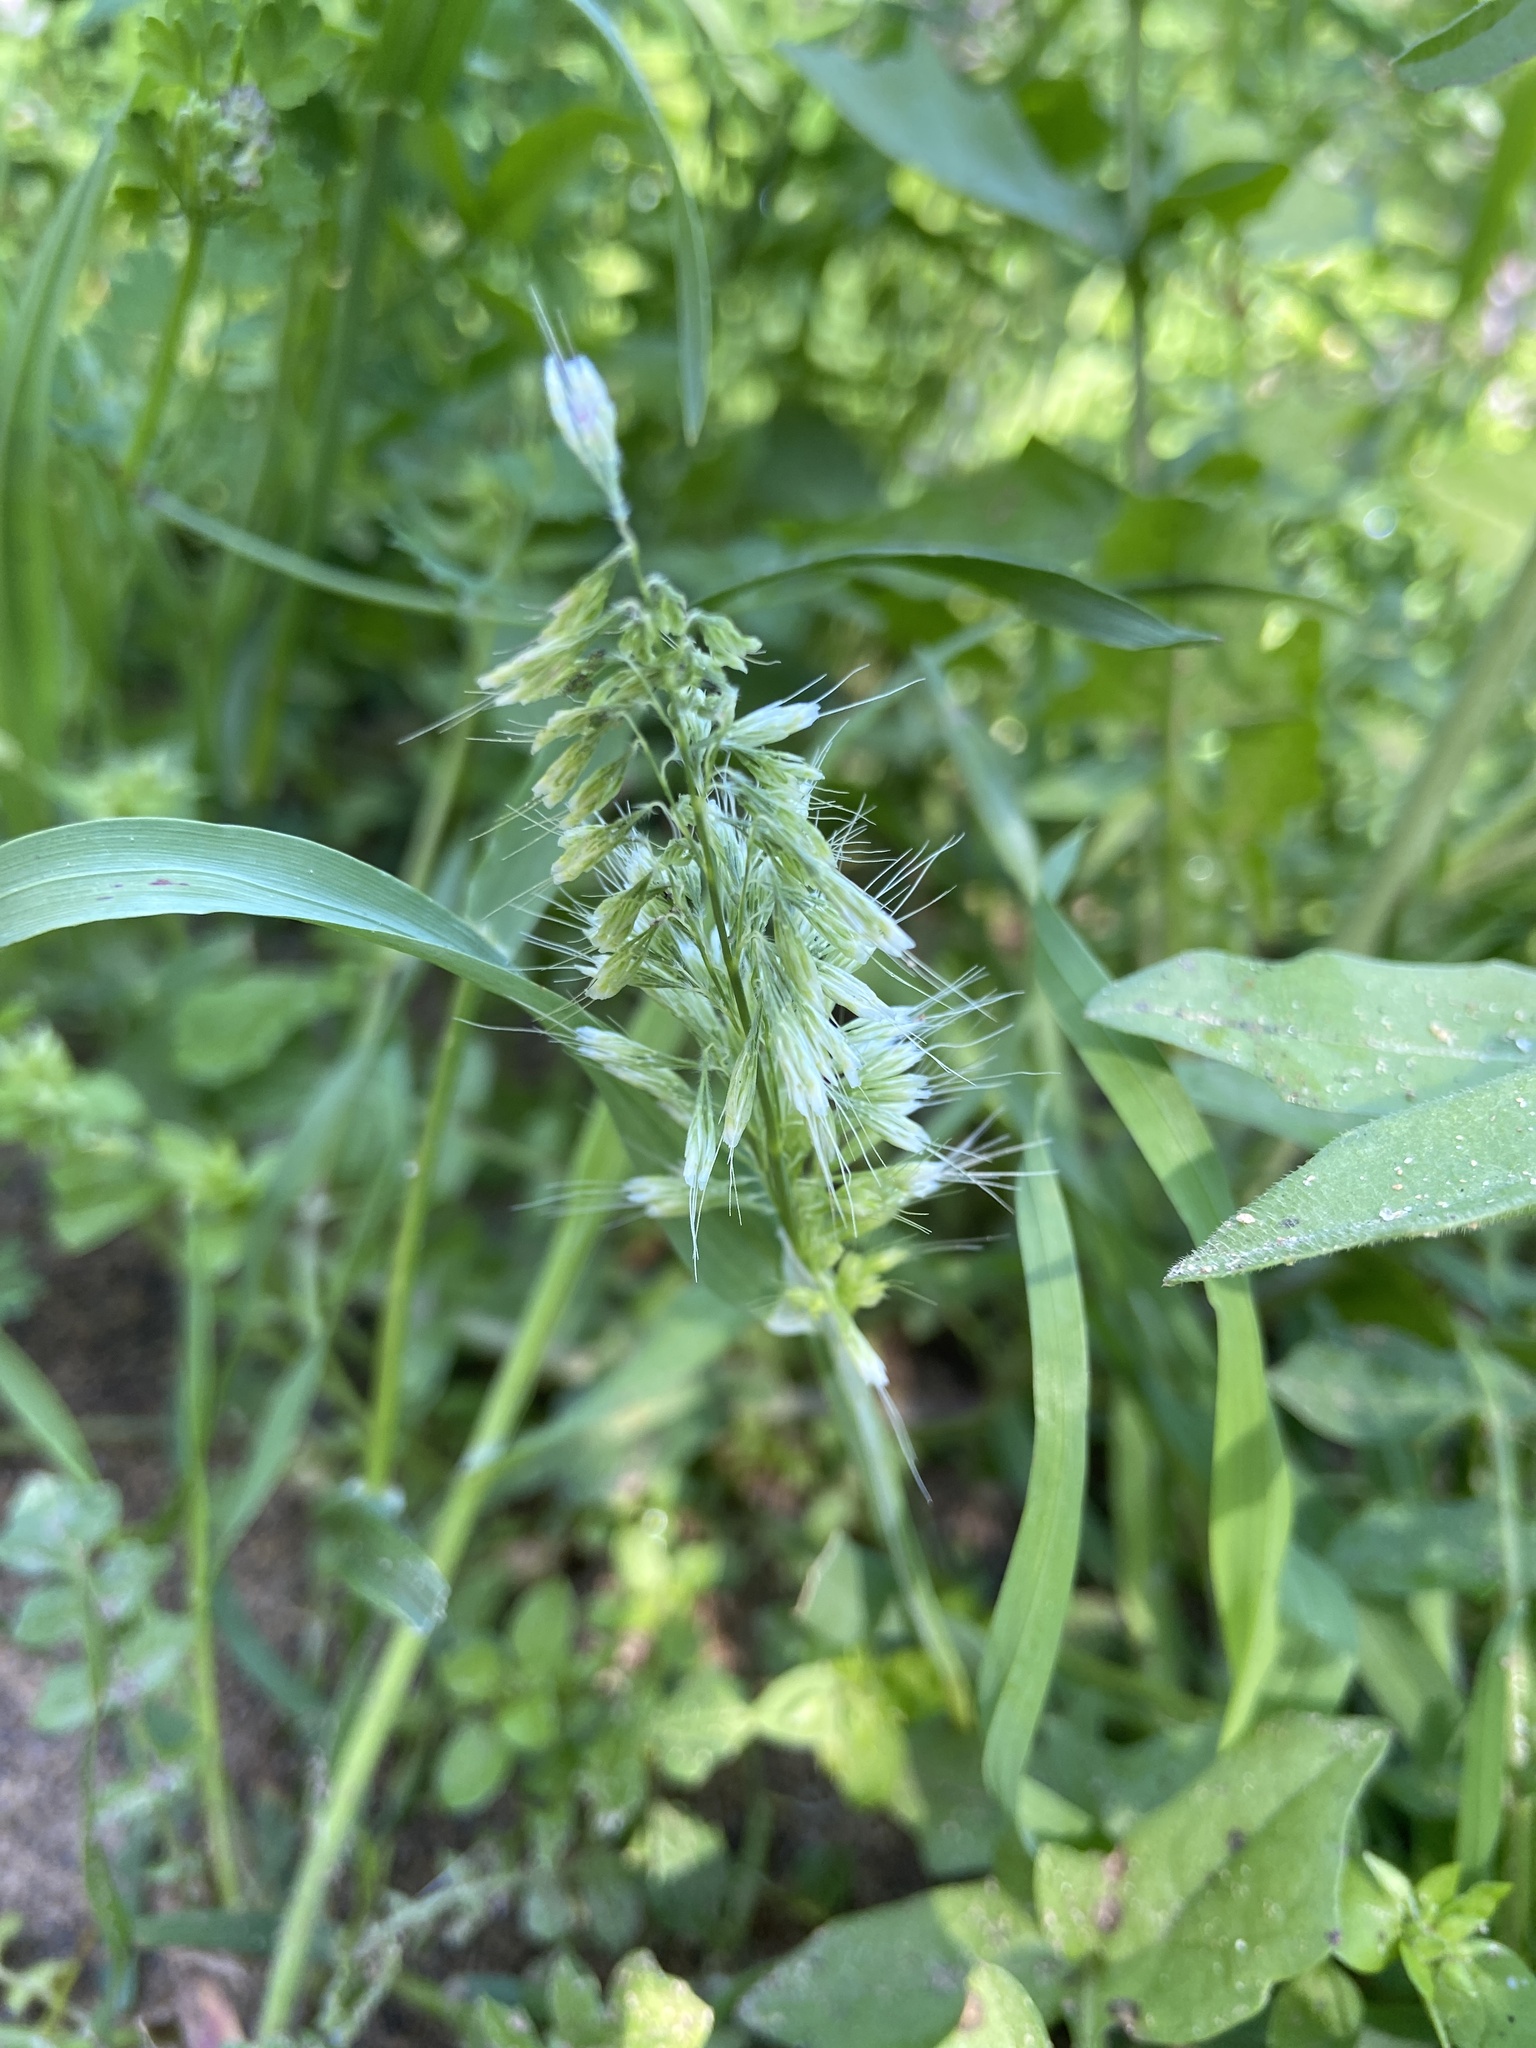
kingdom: Plantae
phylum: Tracheophyta
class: Liliopsida
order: Poales
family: Poaceae
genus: Lamarckia
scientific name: Lamarckia aurea
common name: Golden dog's-tail
